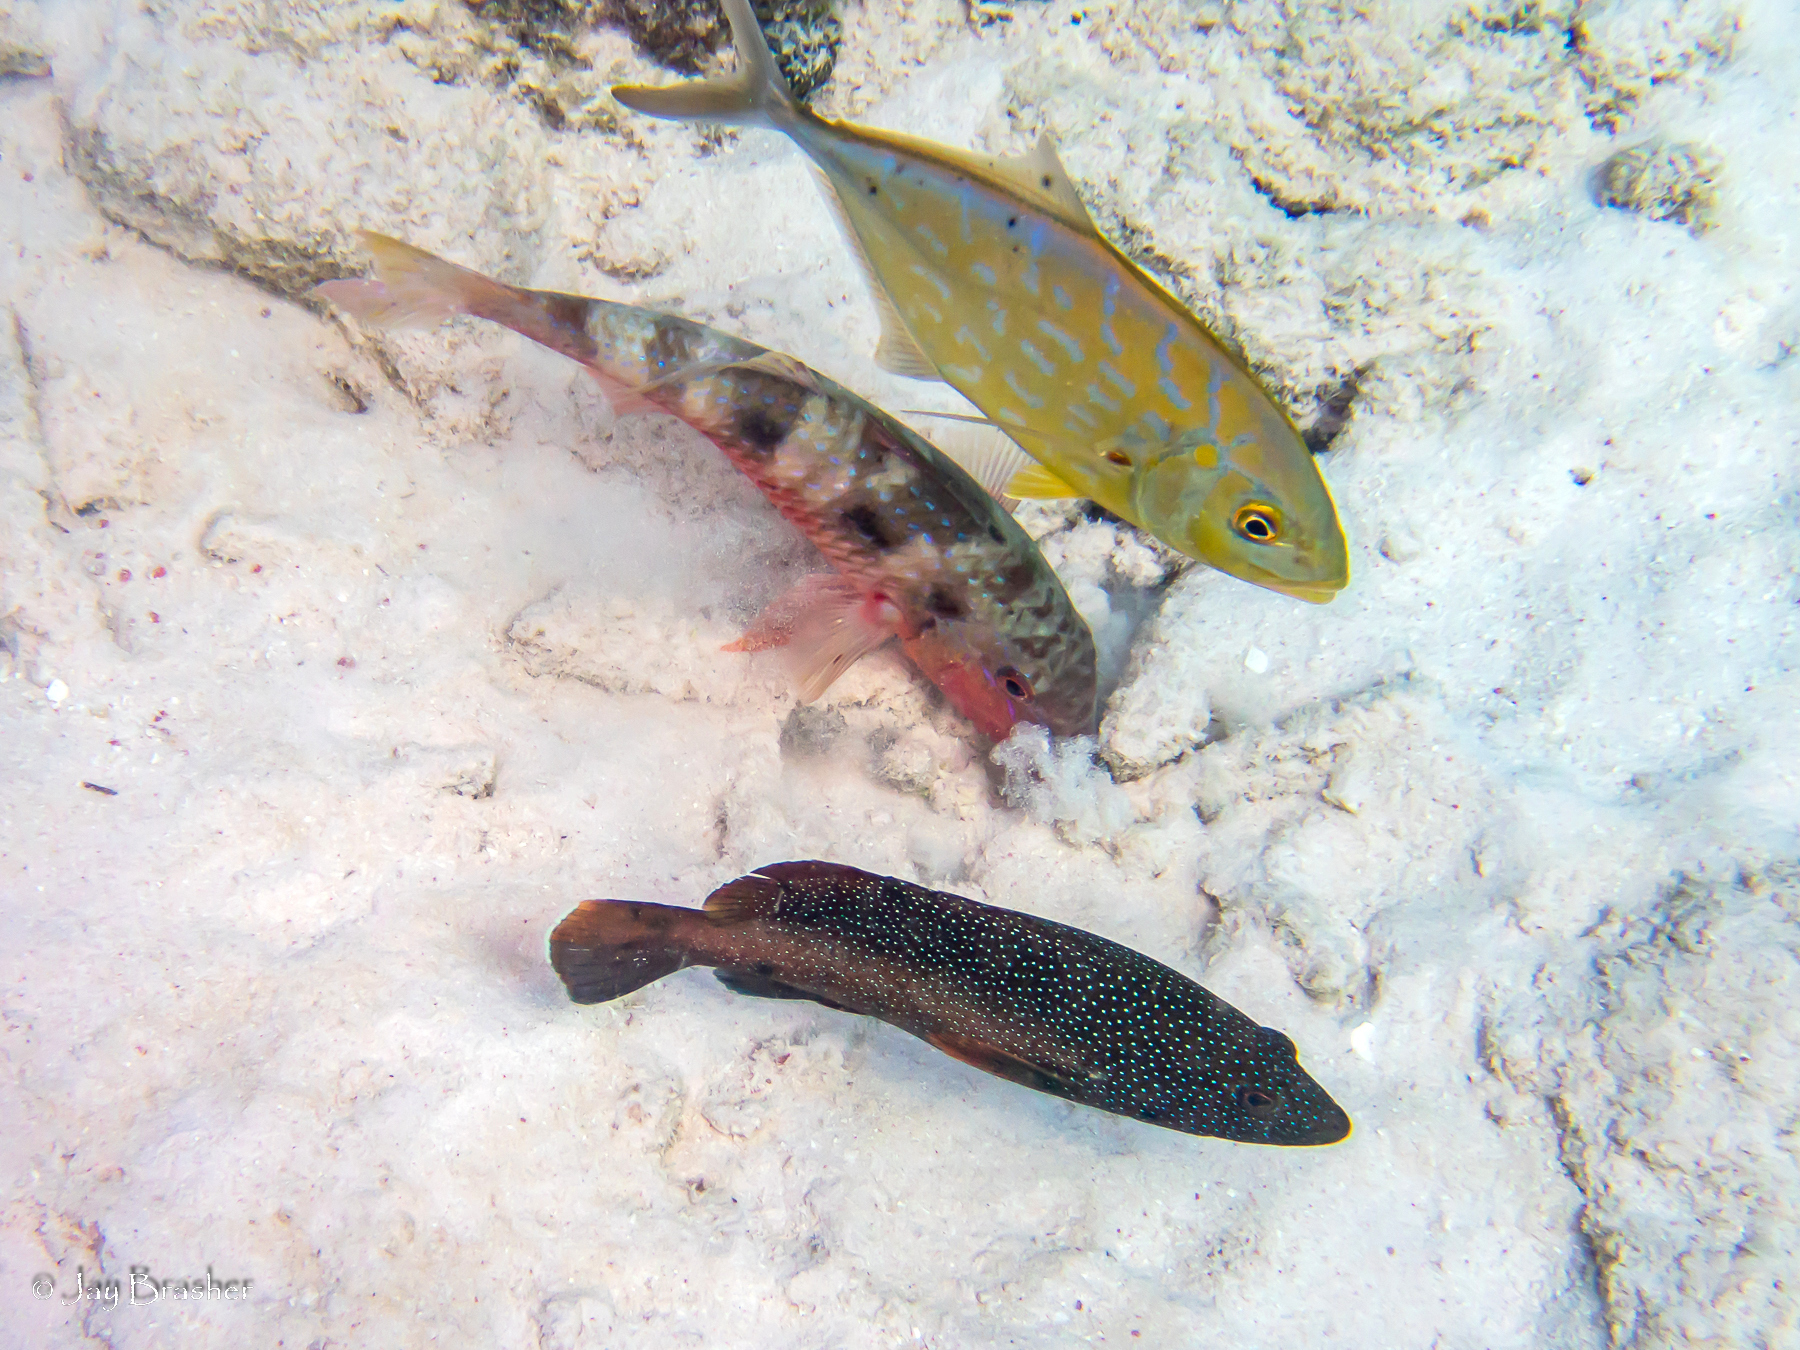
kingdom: Animalia
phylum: Chordata
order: Perciformes
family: Serranidae
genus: Cephalopholis
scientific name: Cephalopholis fulva
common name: Butterfish
